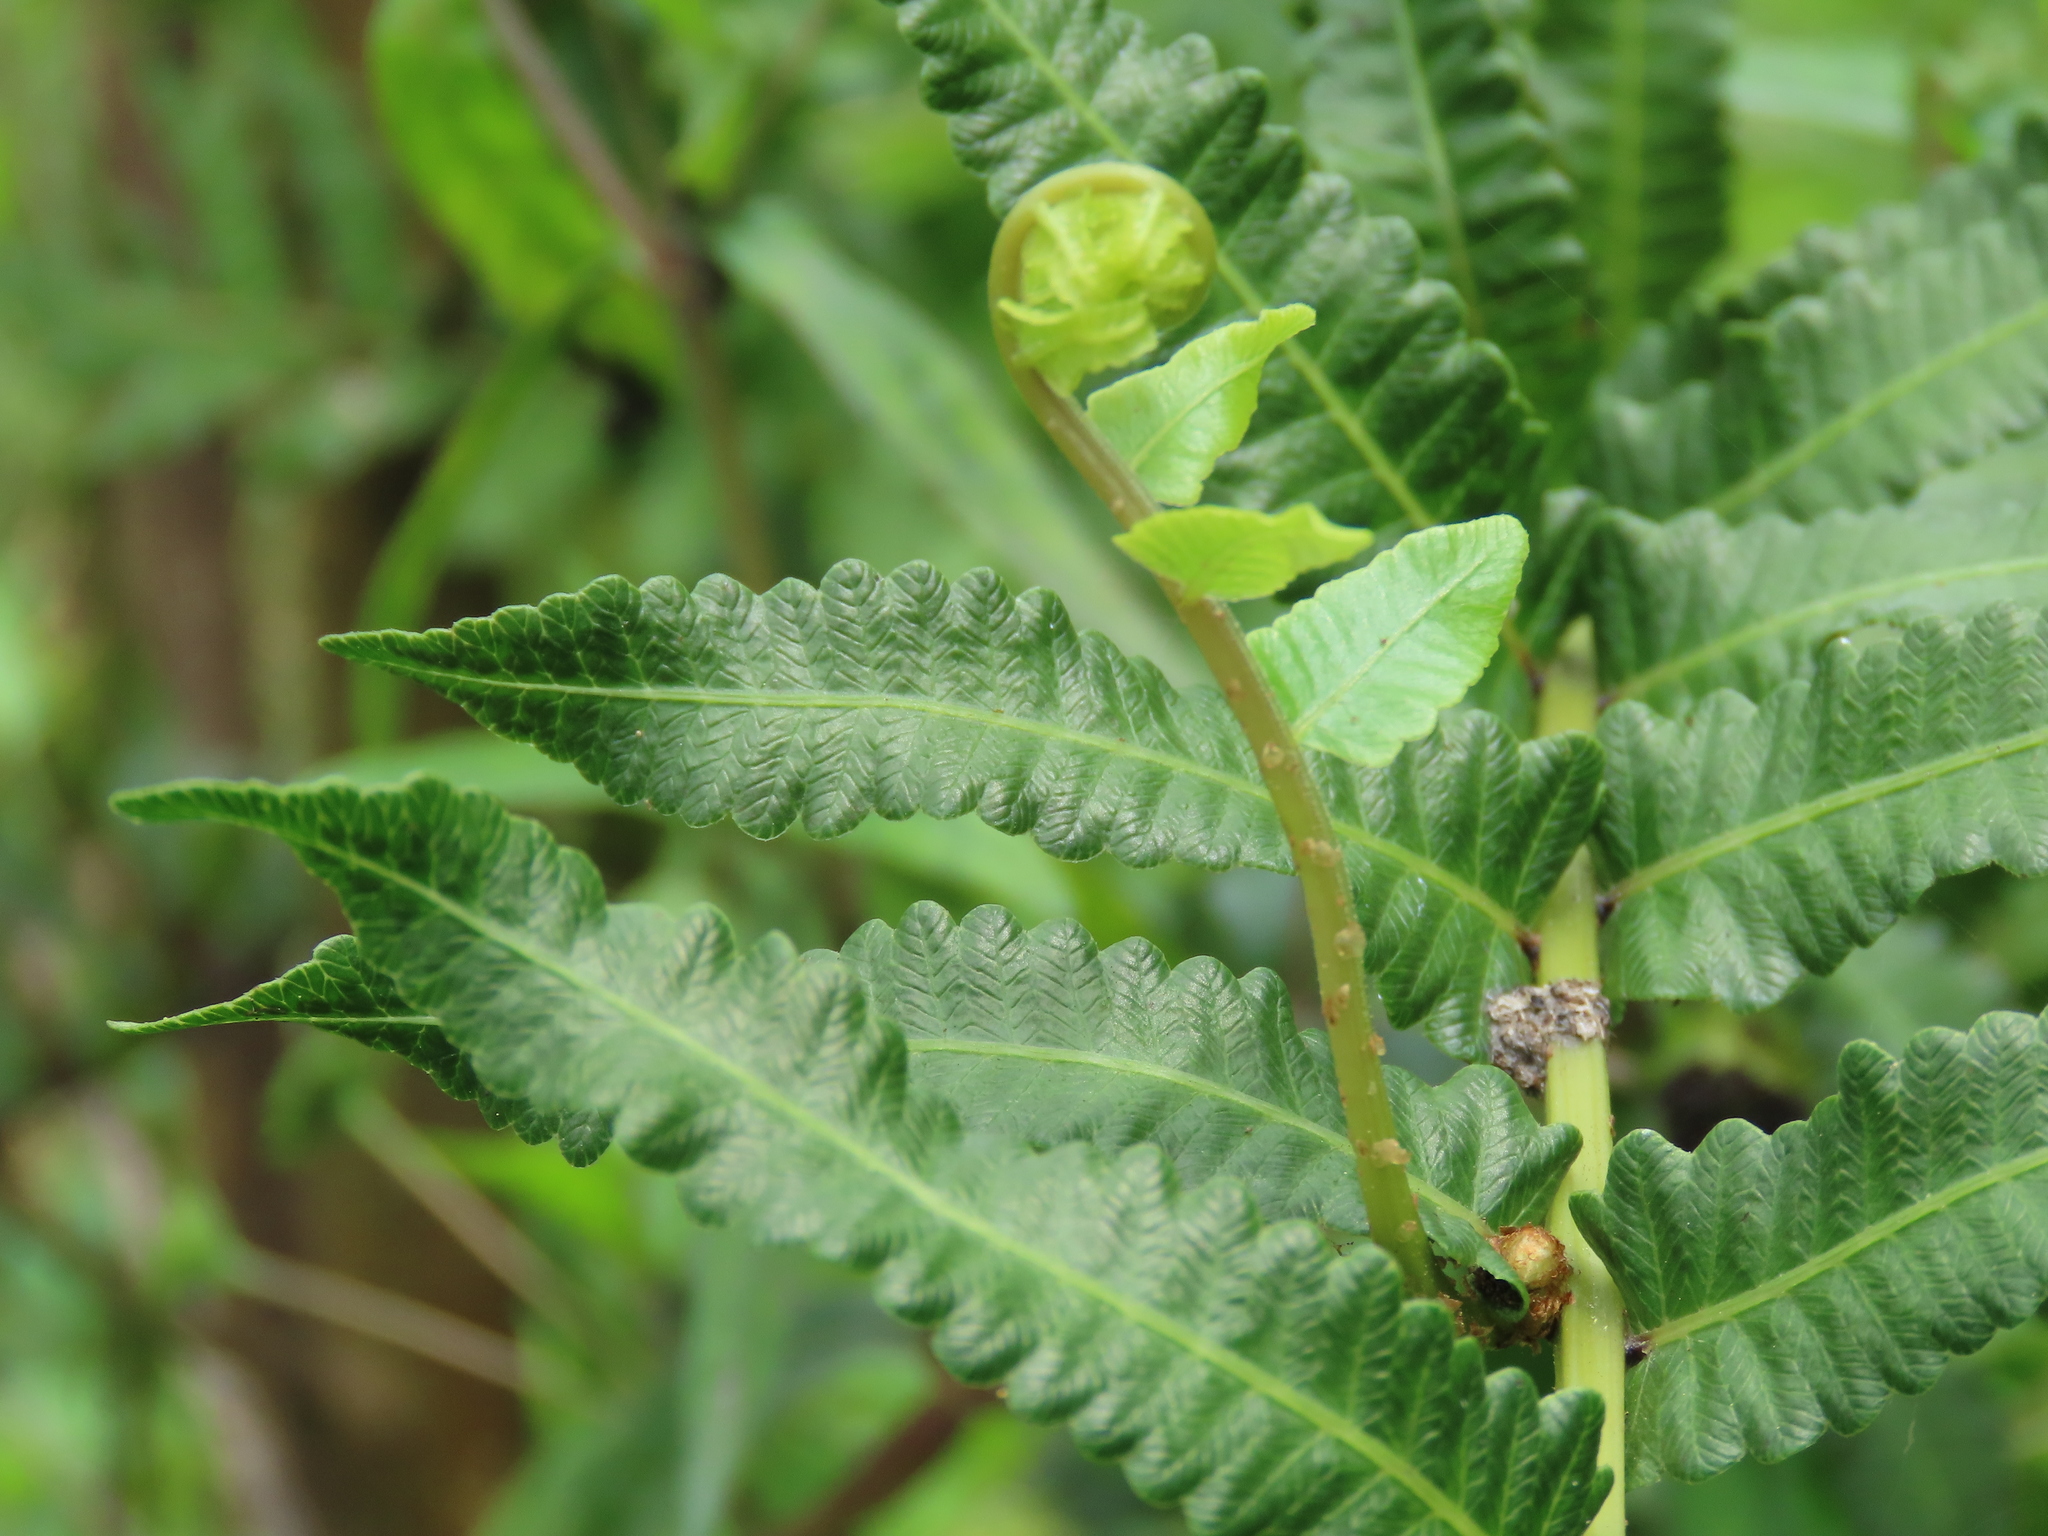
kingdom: Plantae
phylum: Tracheophyta
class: Polypodiopsida
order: Polypodiales
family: Thelypteridaceae
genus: Ampelopteris
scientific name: Ampelopteris prolifera
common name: Riverine scrambler
